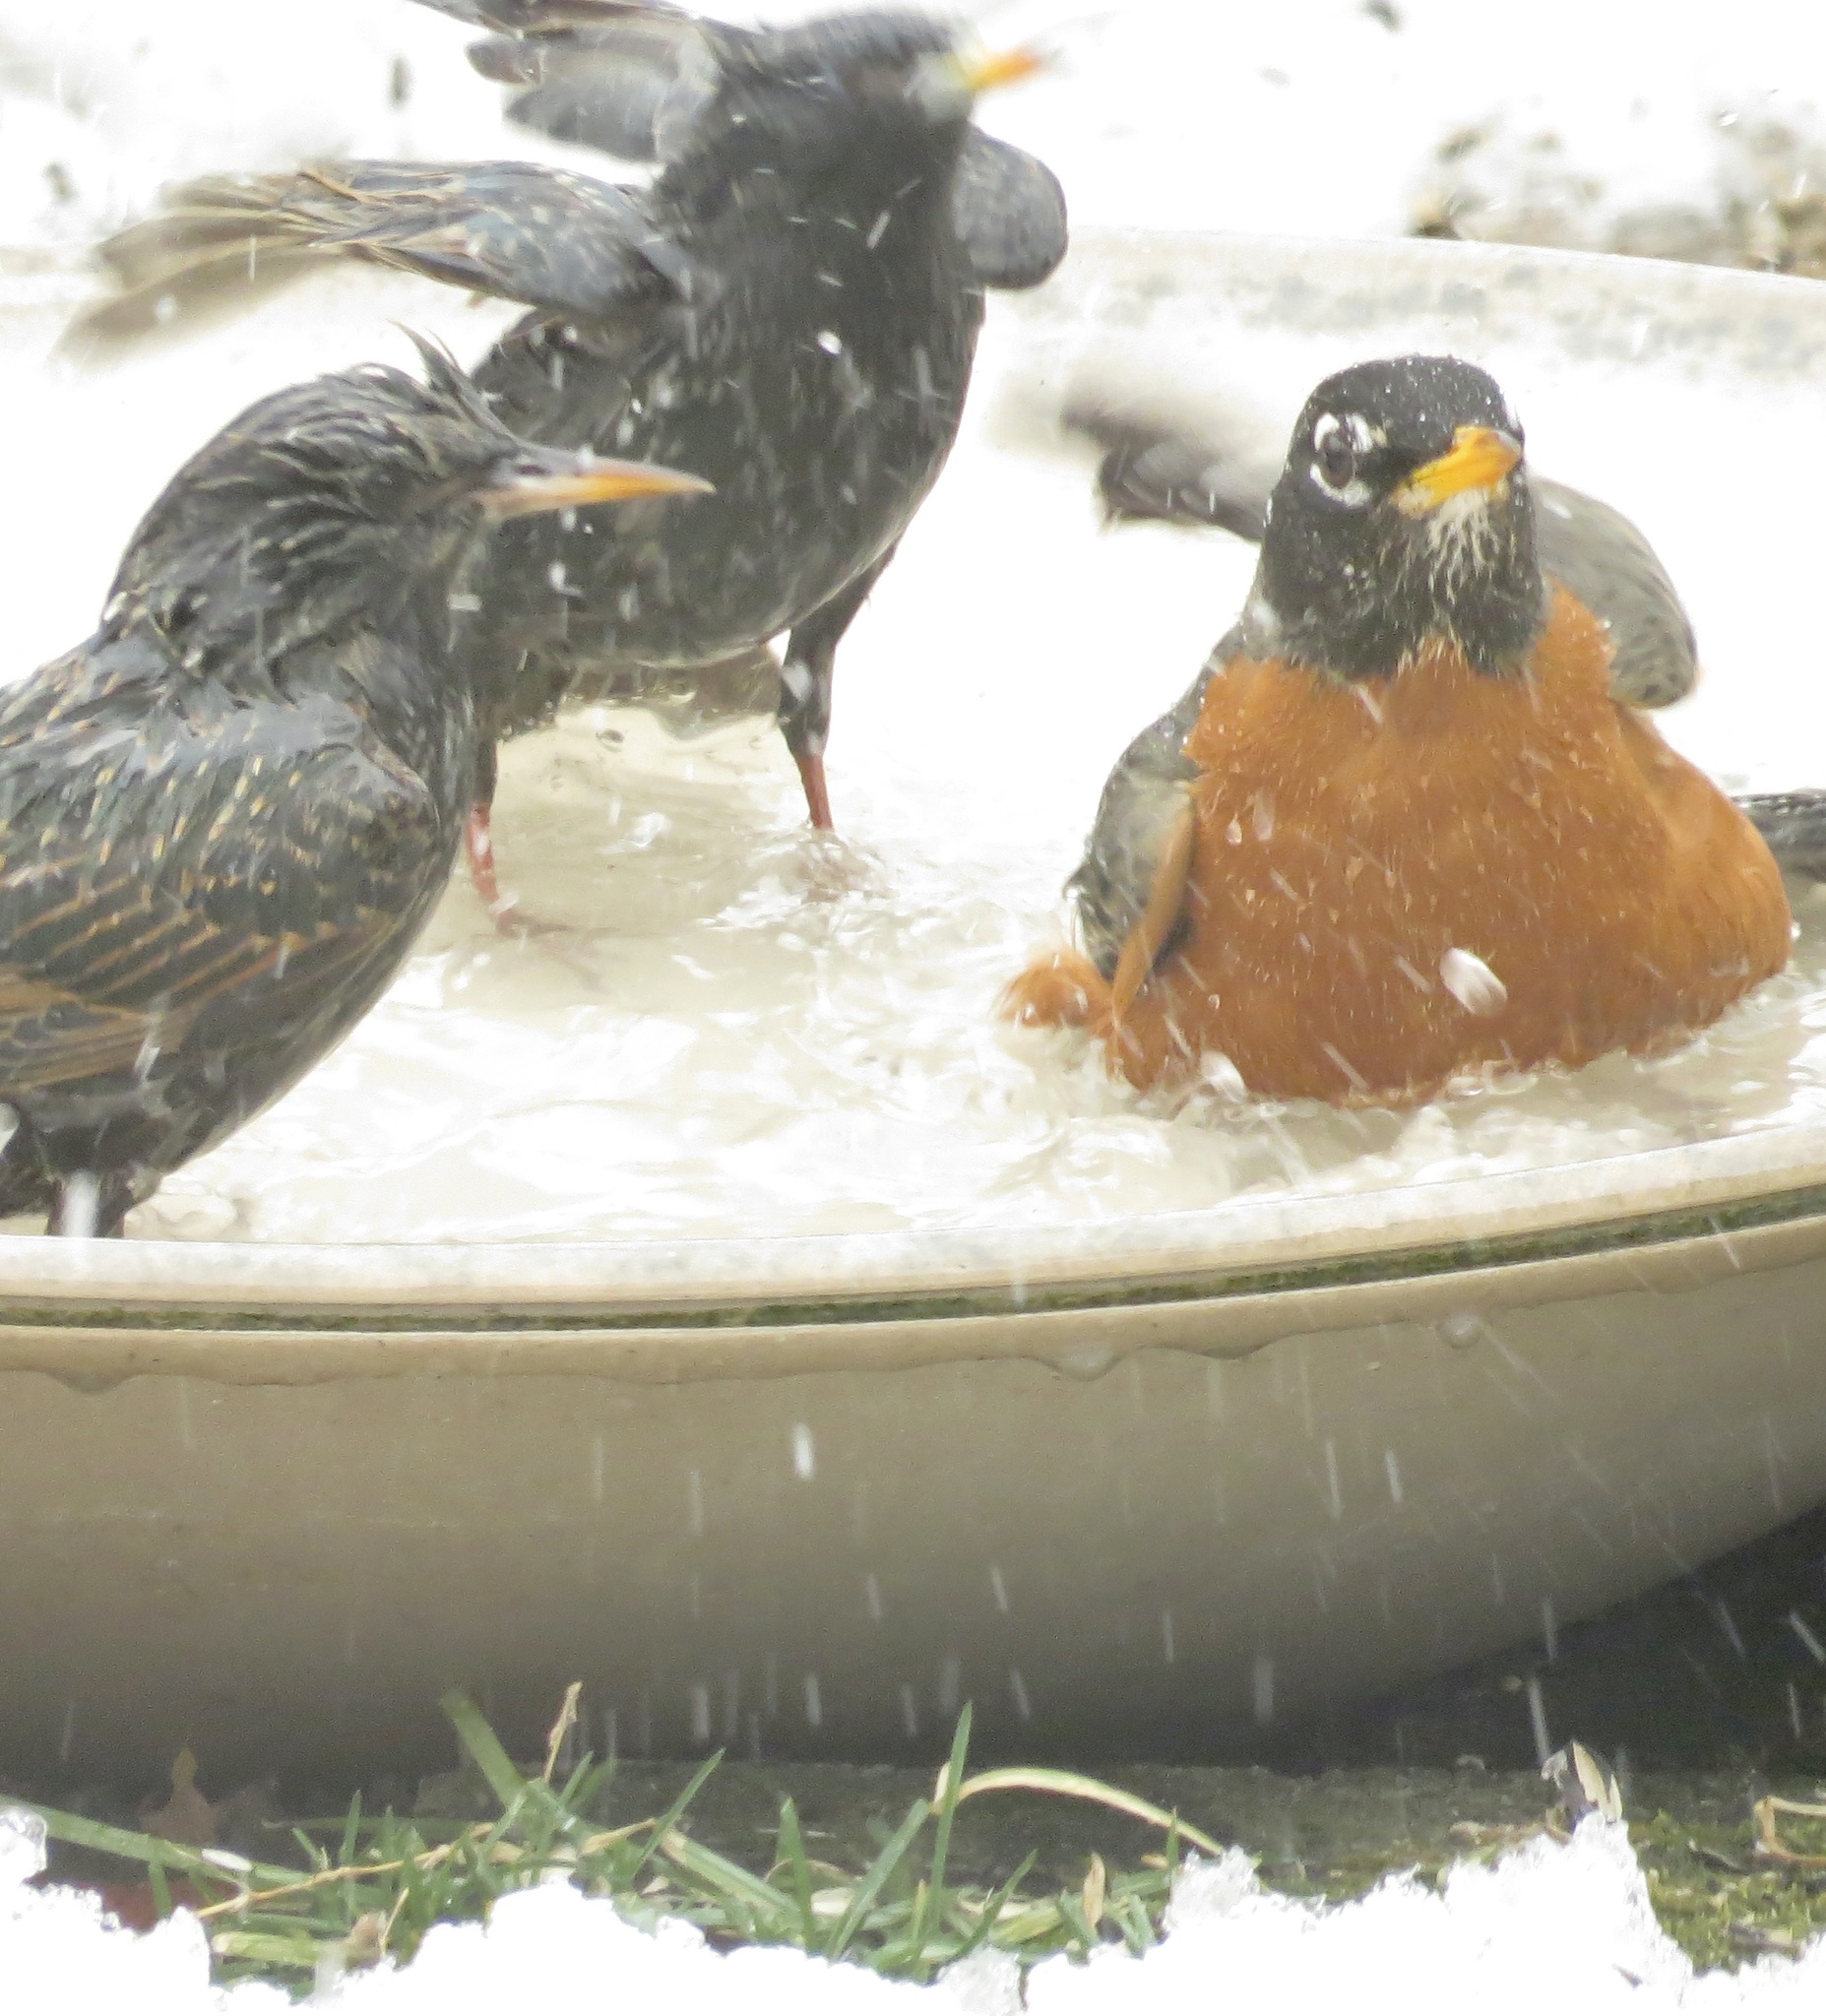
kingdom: Animalia
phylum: Chordata
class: Aves
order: Passeriformes
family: Turdidae
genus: Turdus
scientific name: Turdus migratorius
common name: American robin
